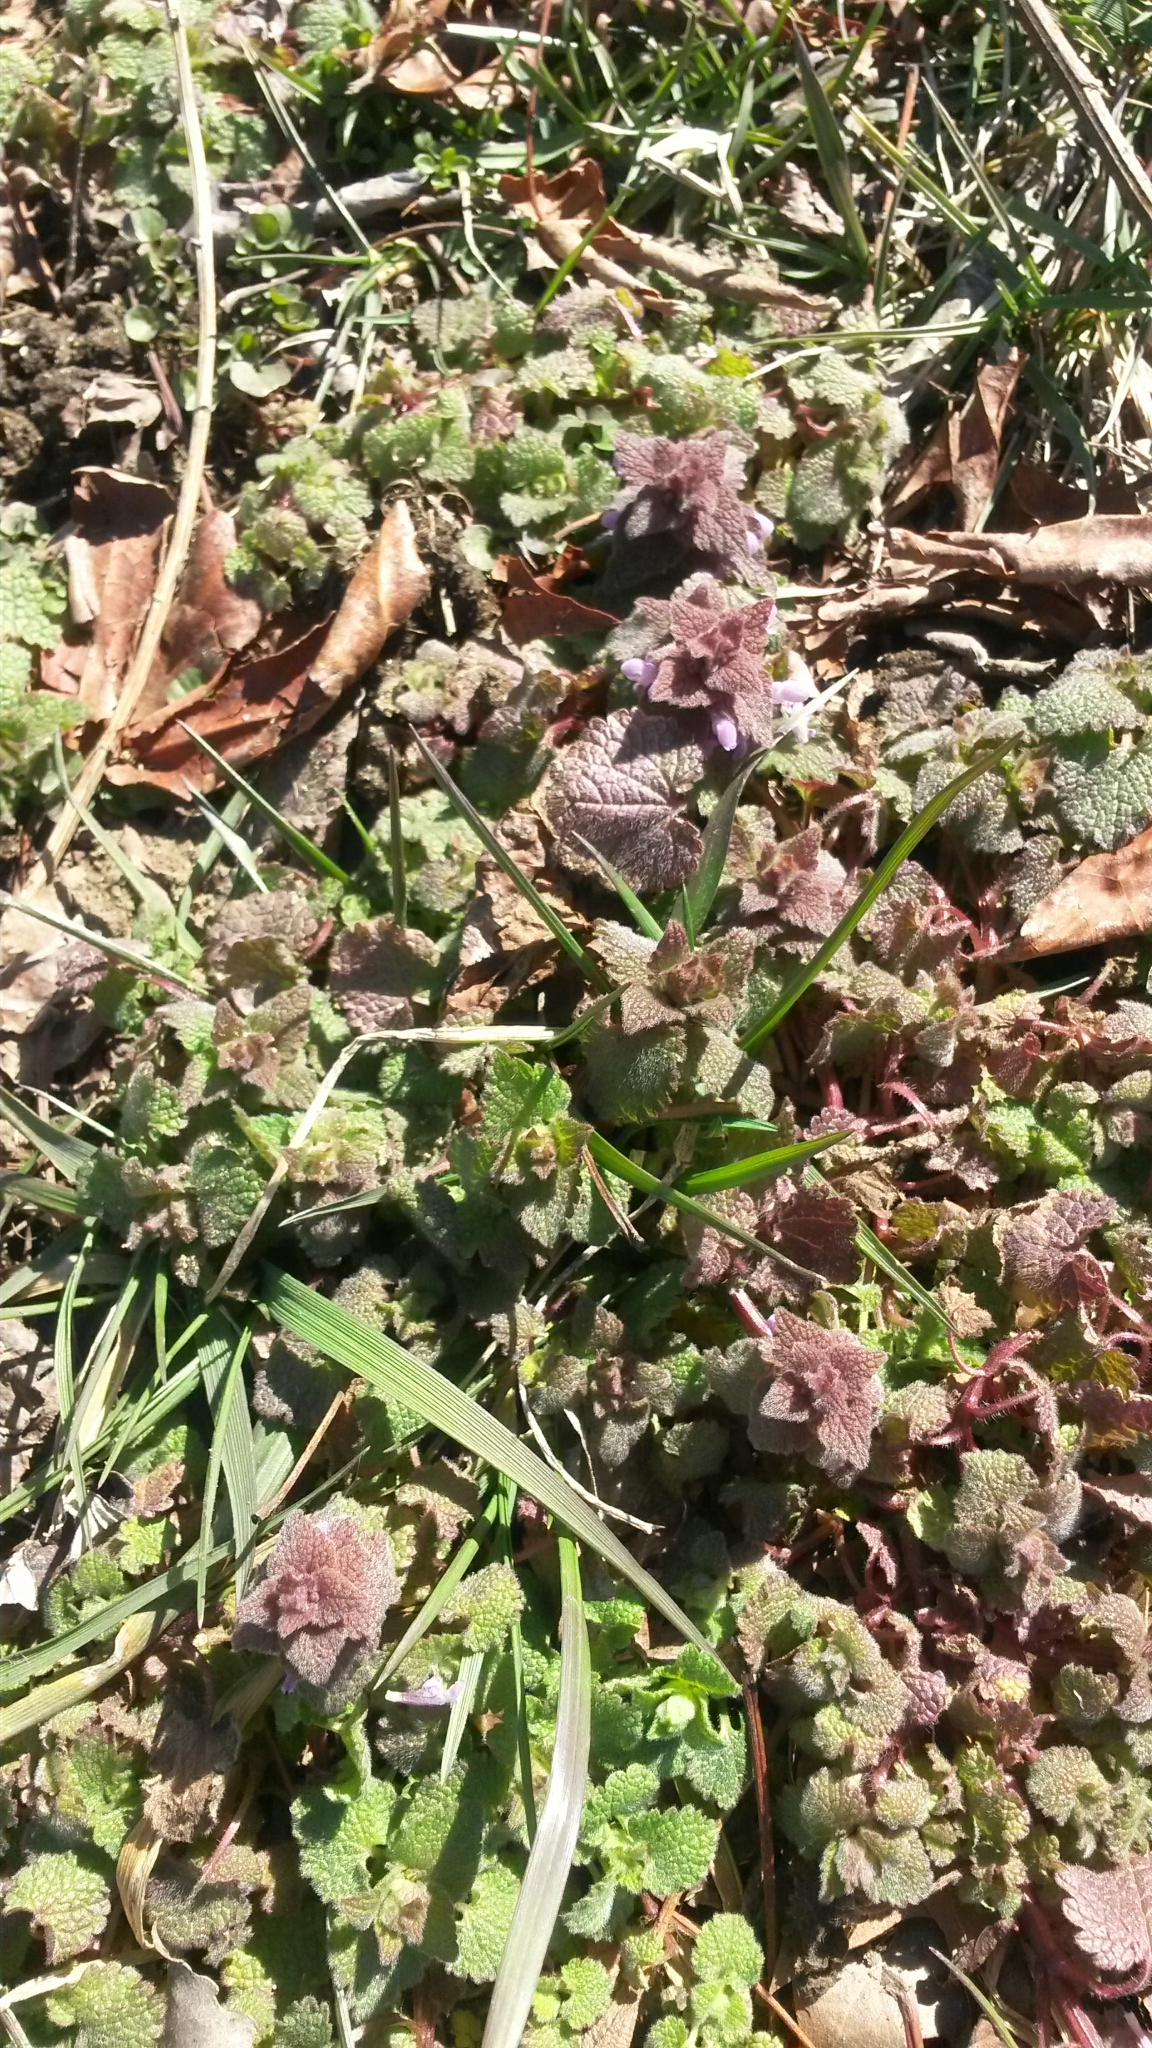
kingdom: Plantae
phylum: Tracheophyta
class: Magnoliopsida
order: Lamiales
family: Lamiaceae
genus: Lamium
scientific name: Lamium purpureum
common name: Red dead-nettle
